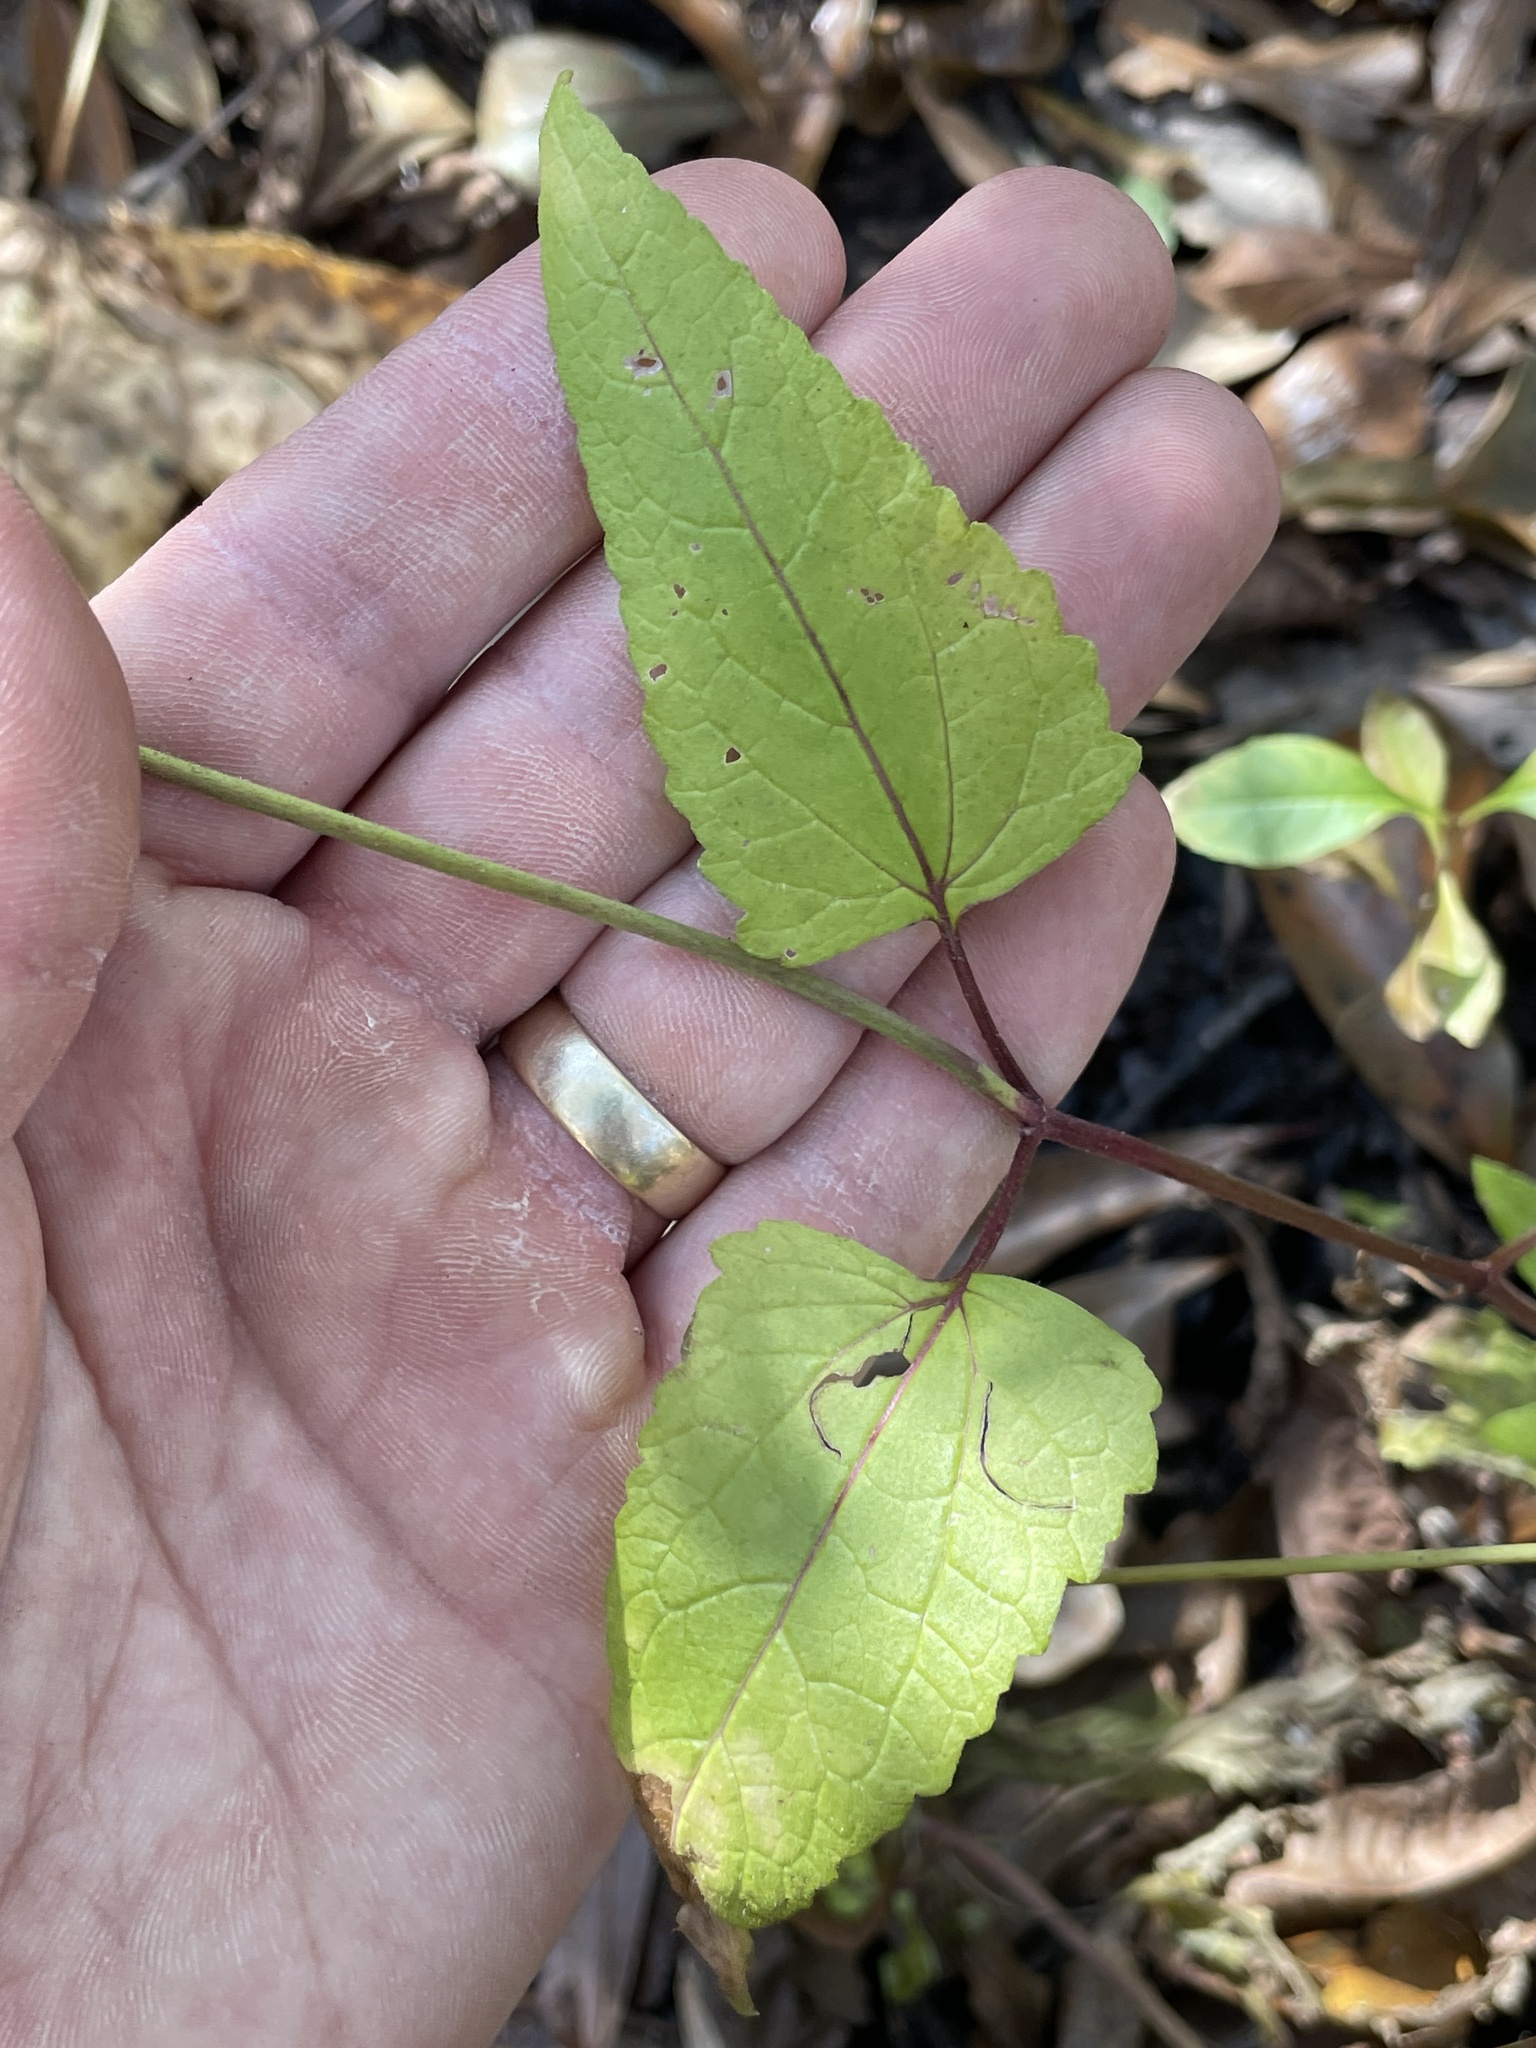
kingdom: Plantae
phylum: Tracheophyta
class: Magnoliopsida
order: Asterales
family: Asteraceae
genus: Conoclinium
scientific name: Conoclinium coelestinum
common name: Blue mistflower
